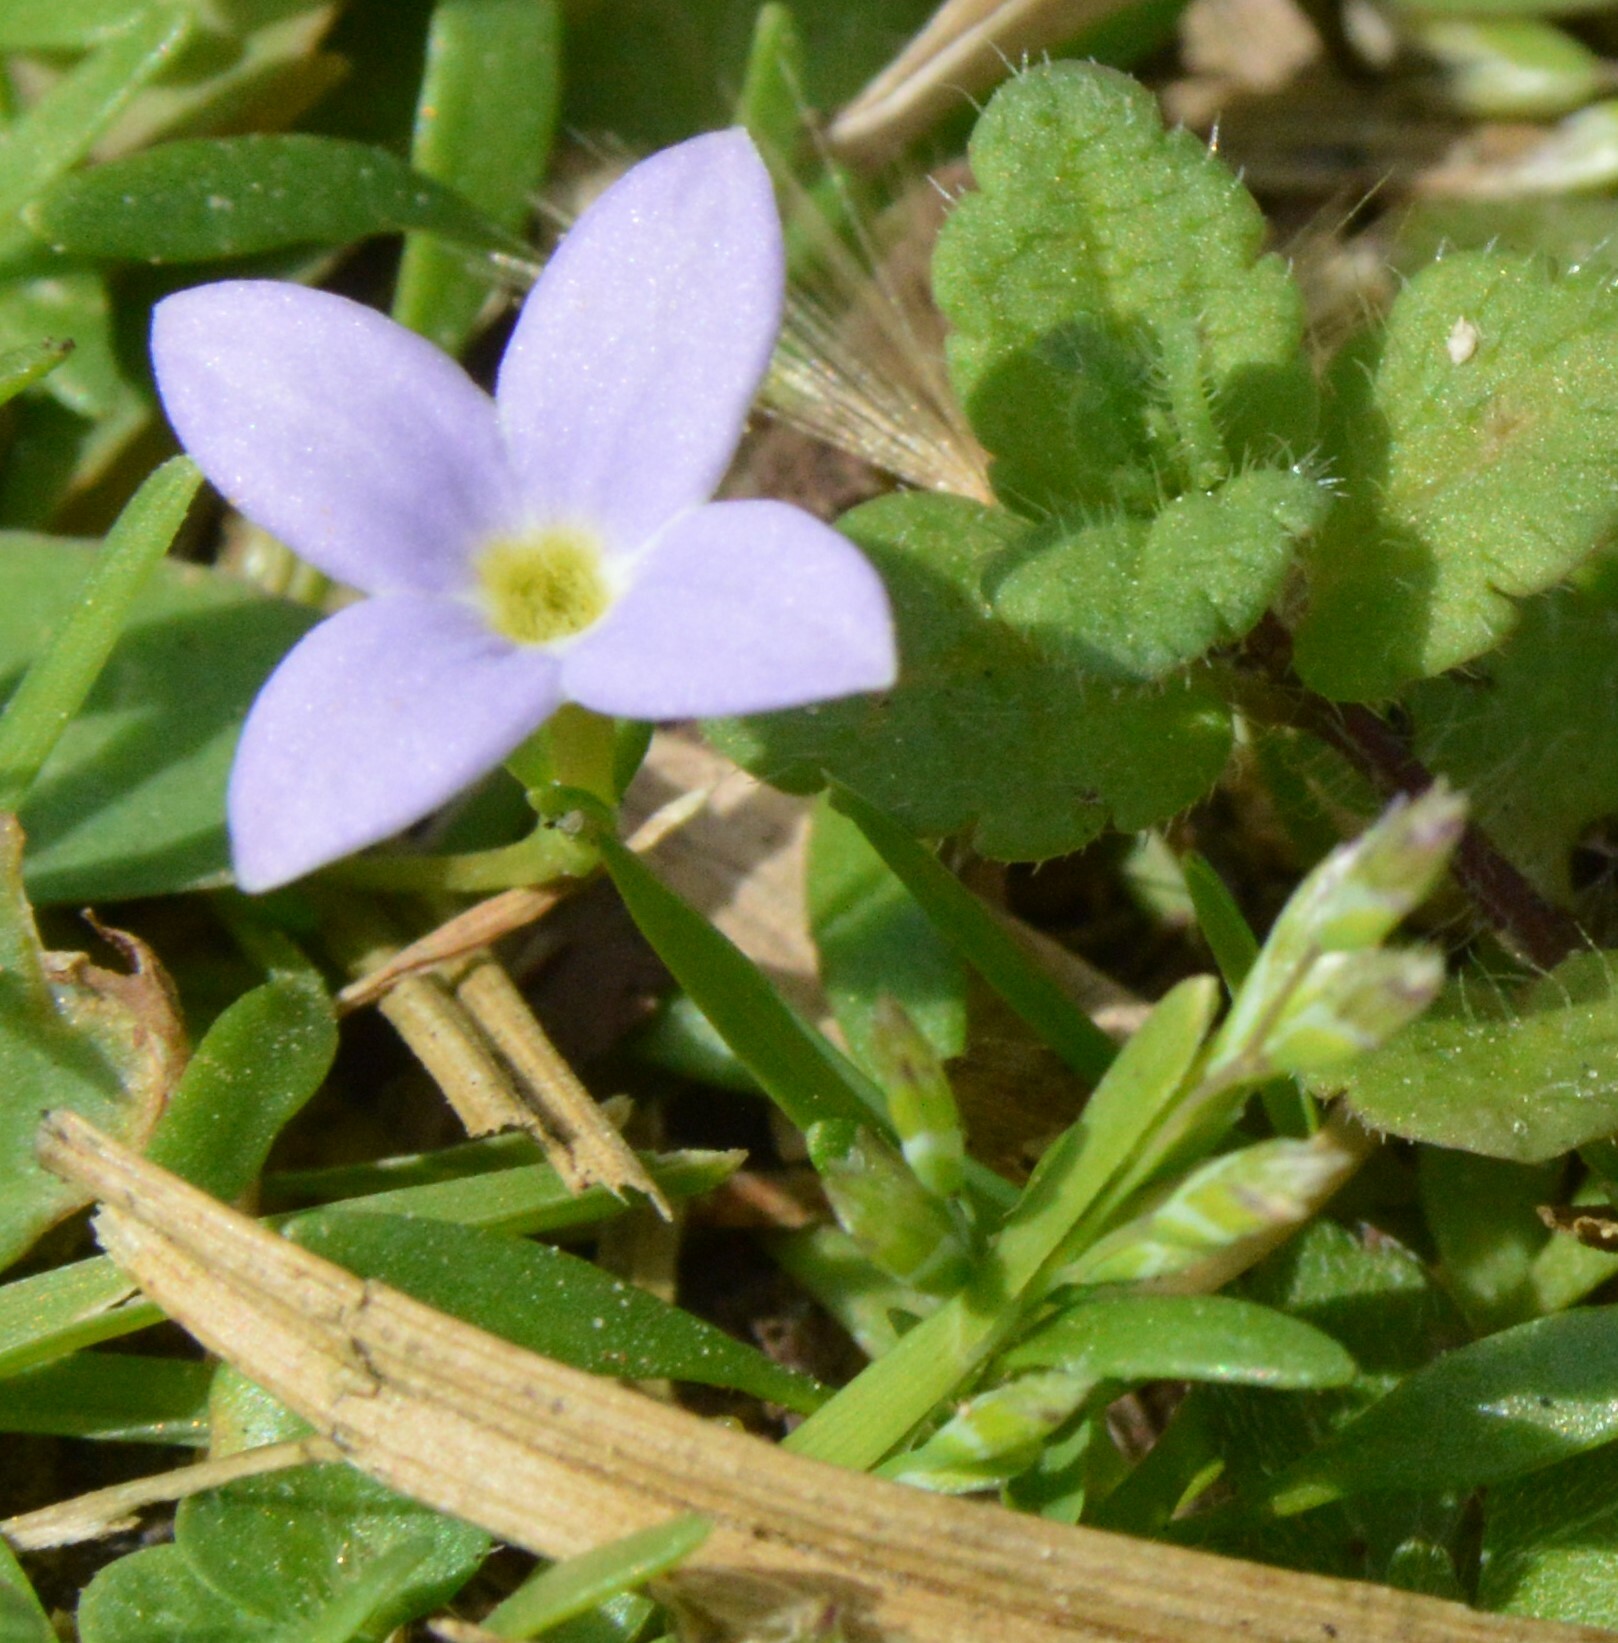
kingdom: Plantae
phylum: Tracheophyta
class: Magnoliopsida
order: Gentianales
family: Rubiaceae
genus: Houstonia
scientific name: Houstonia rosea
